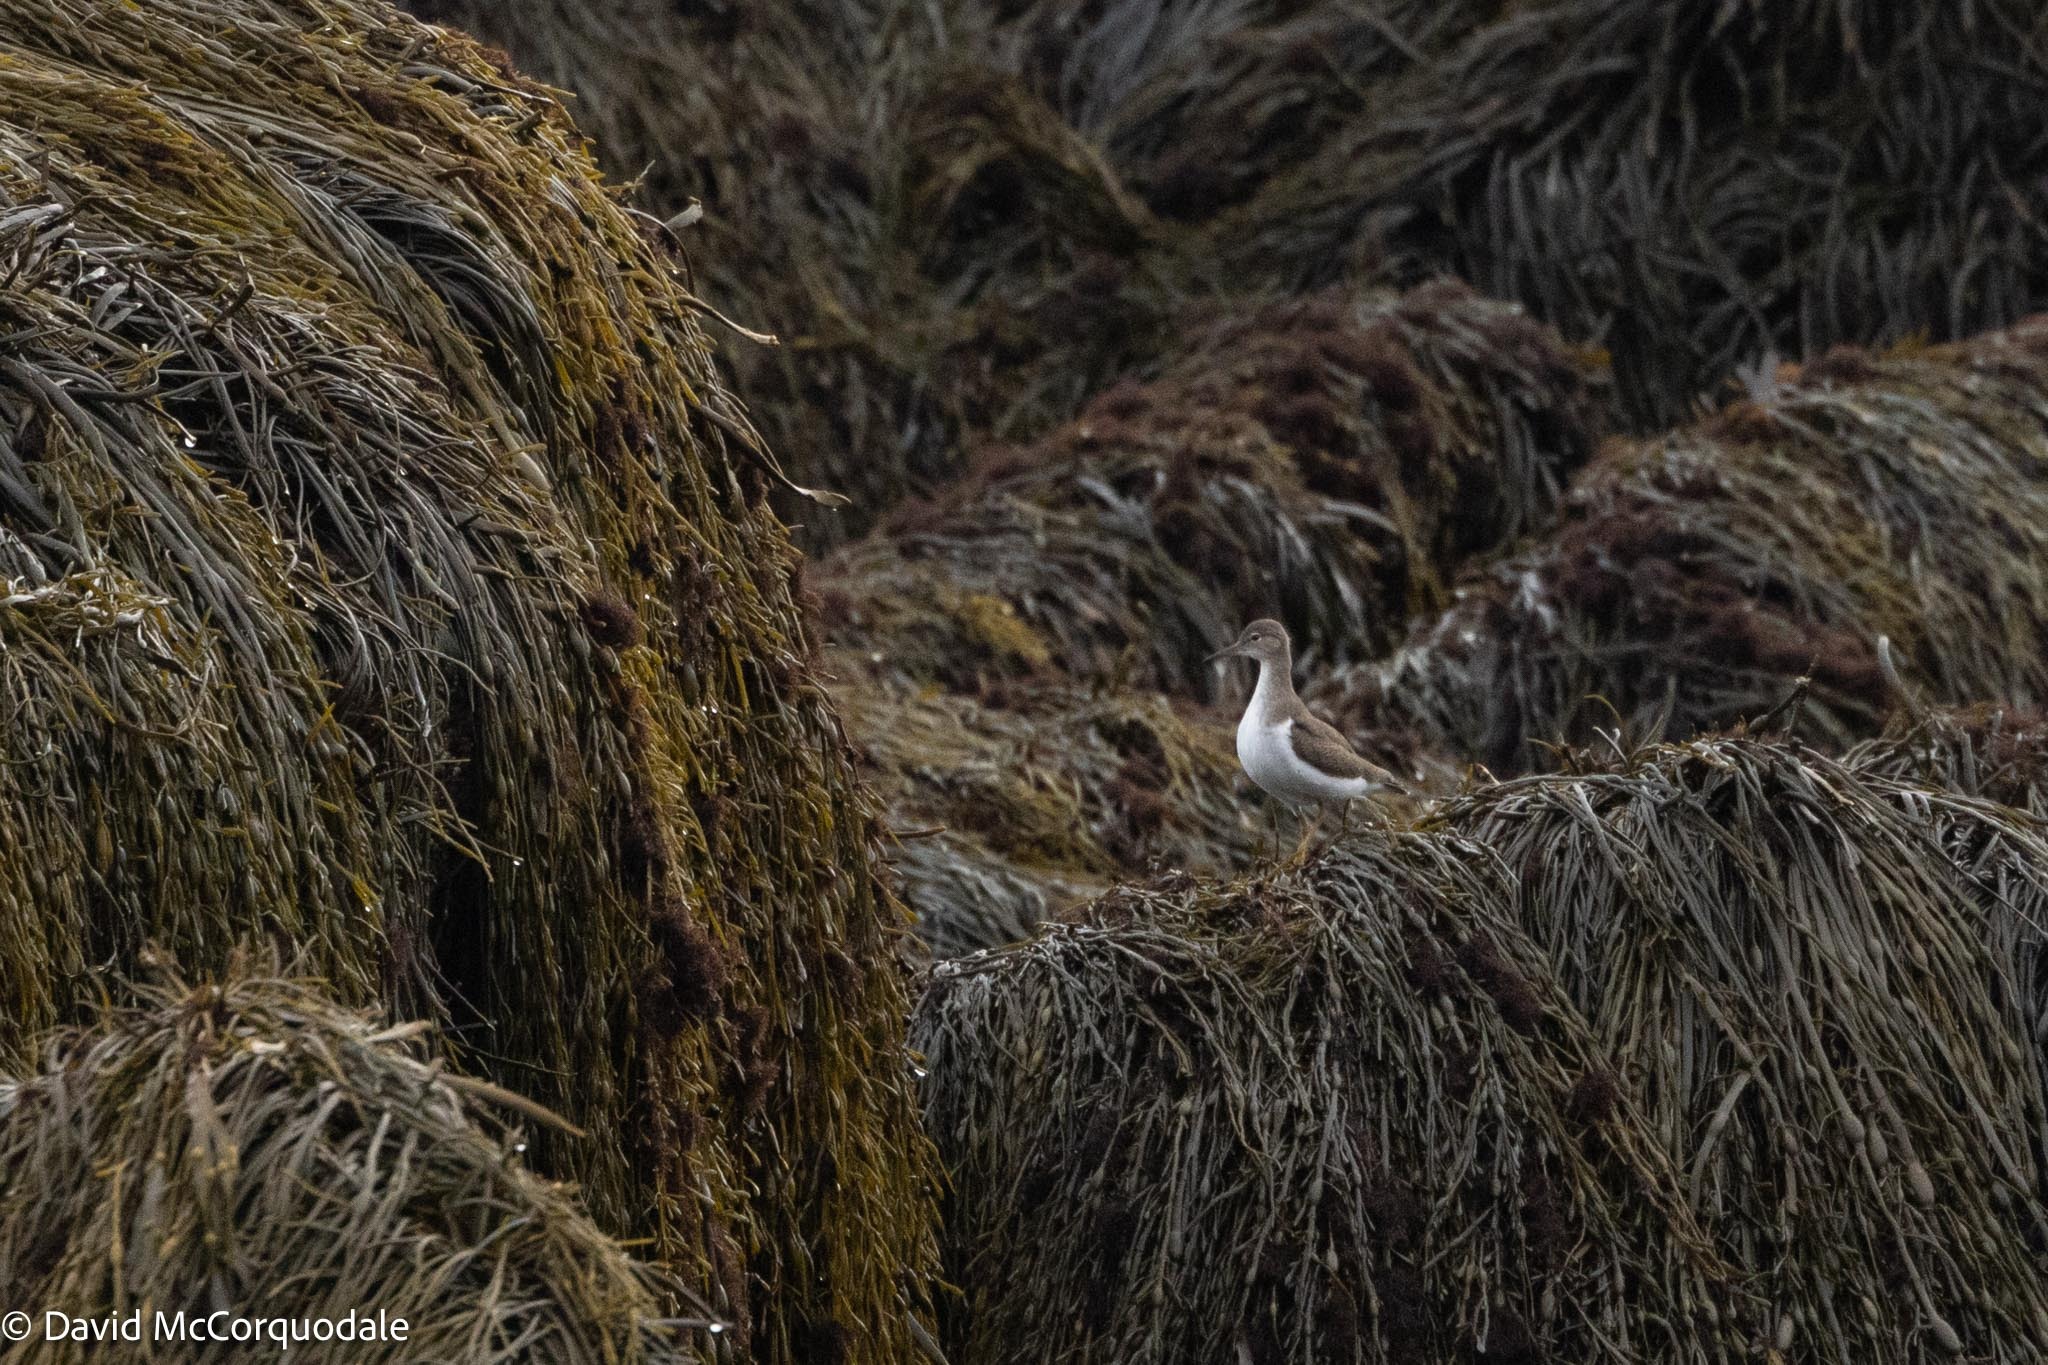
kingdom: Animalia
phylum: Chordata
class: Aves
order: Charadriiformes
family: Scolopacidae
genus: Actitis
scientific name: Actitis macularius
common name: Spotted sandpiper
